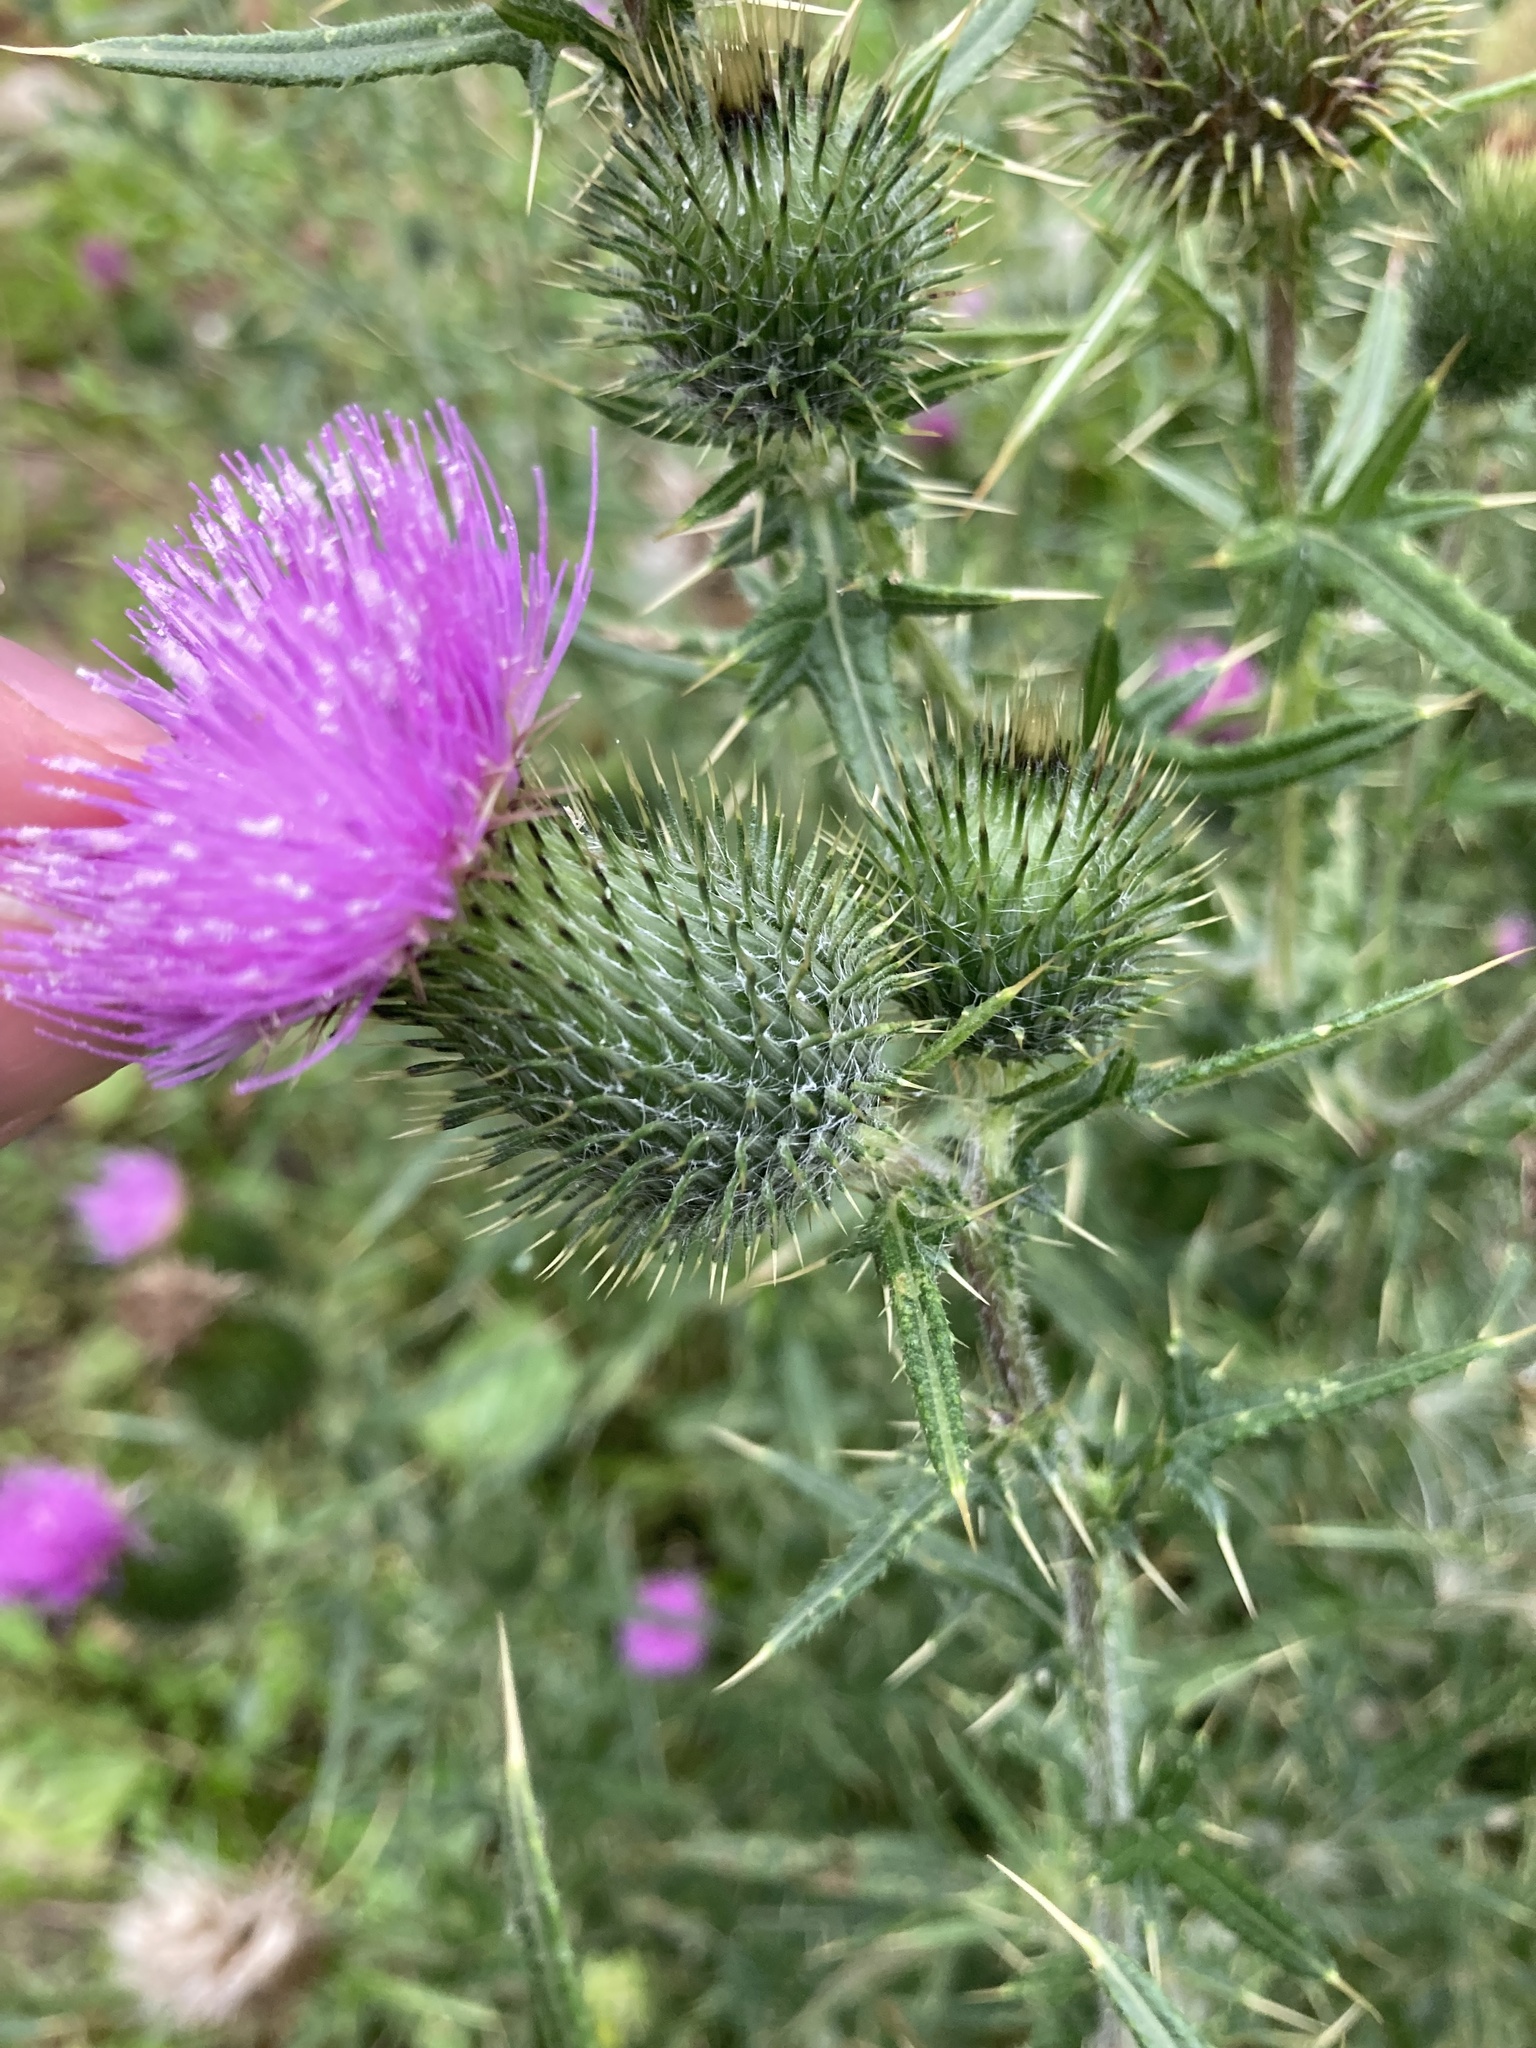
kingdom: Plantae
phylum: Tracheophyta
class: Magnoliopsida
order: Asterales
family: Asteraceae
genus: Cirsium
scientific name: Cirsium vulgare
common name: Bull thistle
